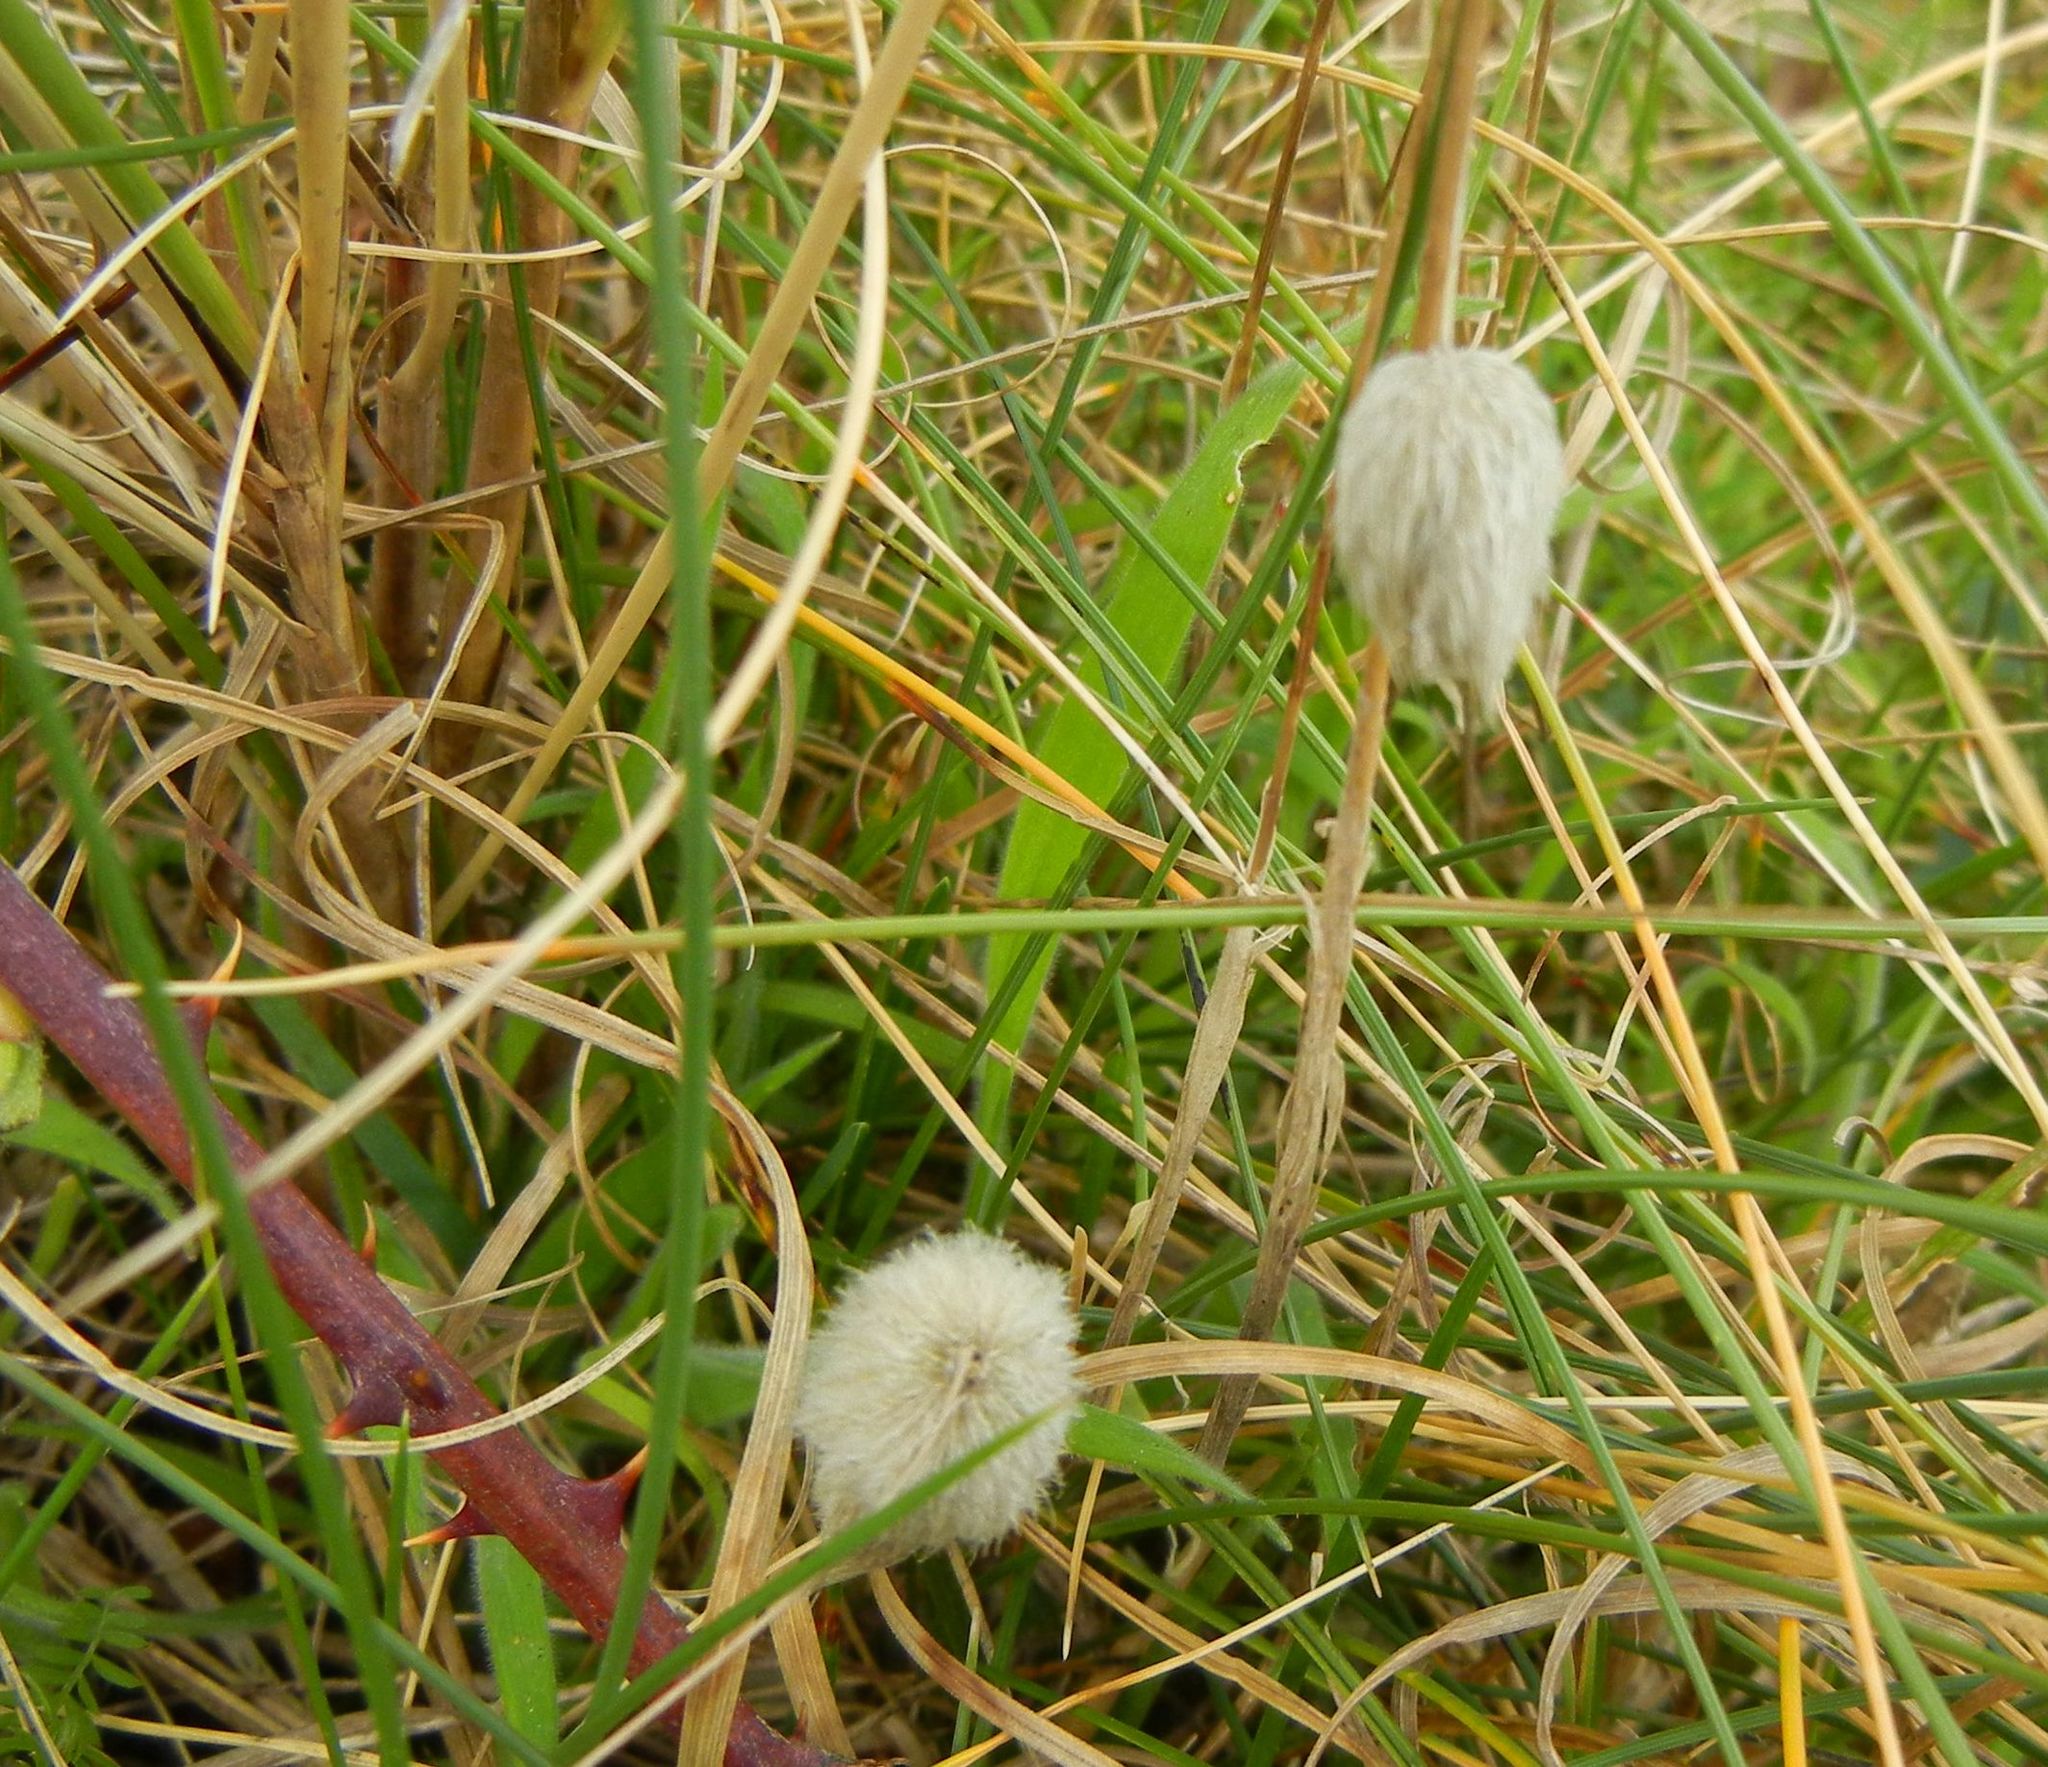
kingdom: Plantae
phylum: Tracheophyta
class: Liliopsida
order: Poales
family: Poaceae
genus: Lagurus
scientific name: Lagurus ovatus
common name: Hare's-tail
